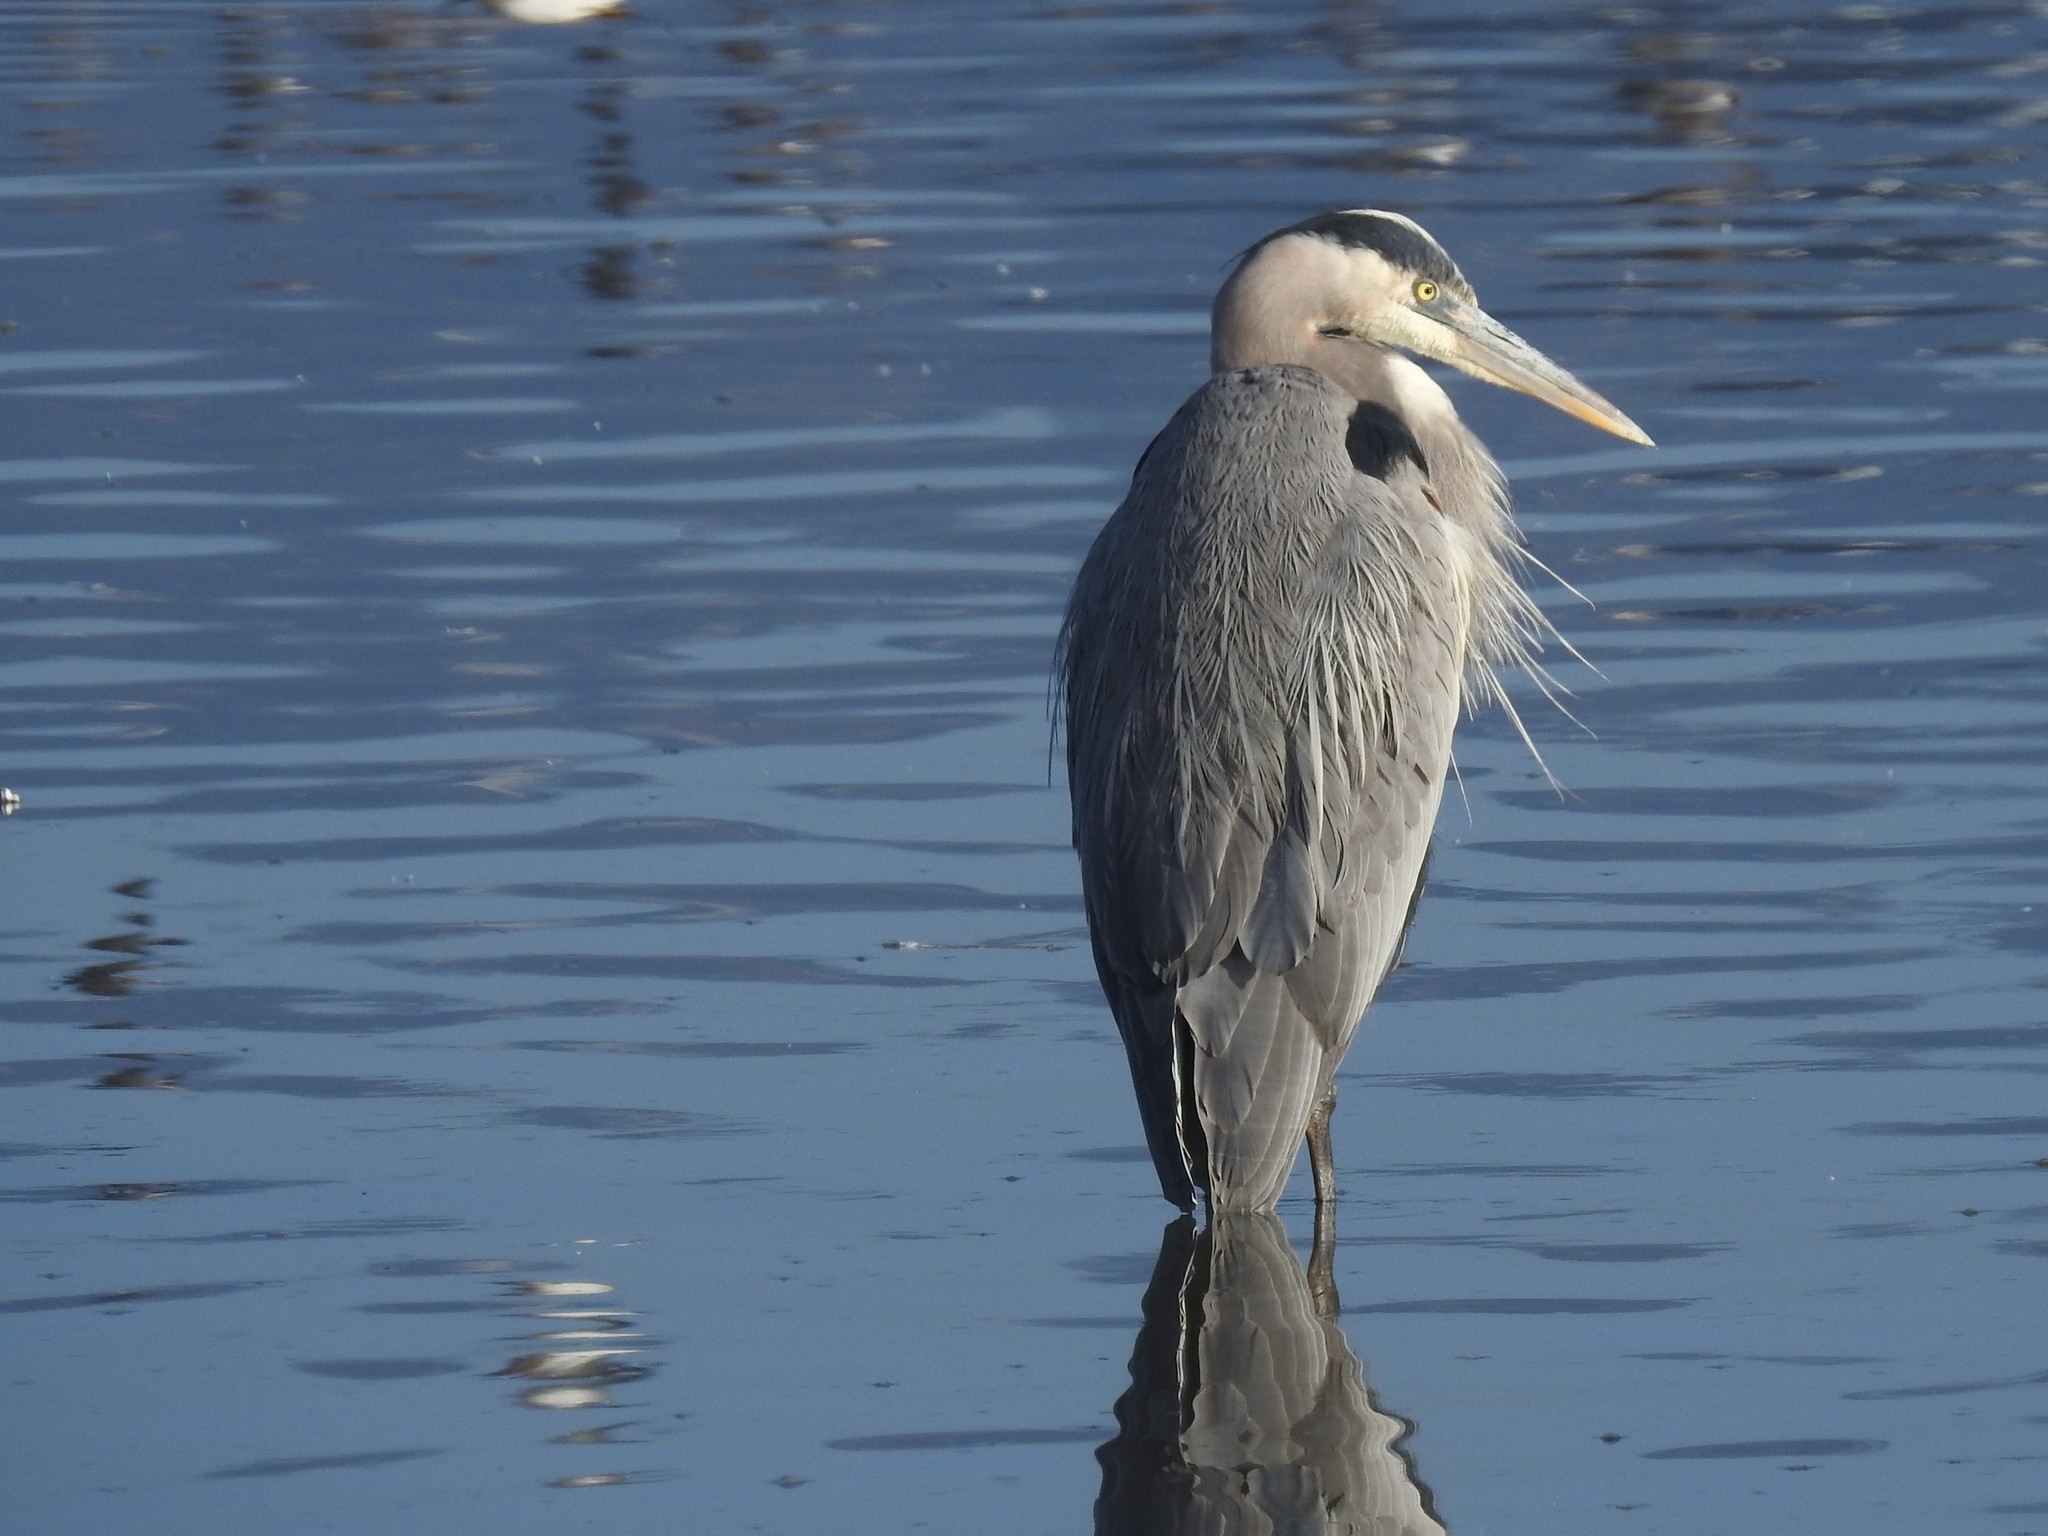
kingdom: Animalia
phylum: Chordata
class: Aves
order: Pelecaniformes
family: Ardeidae
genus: Ardea
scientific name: Ardea herodias
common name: Great blue heron
